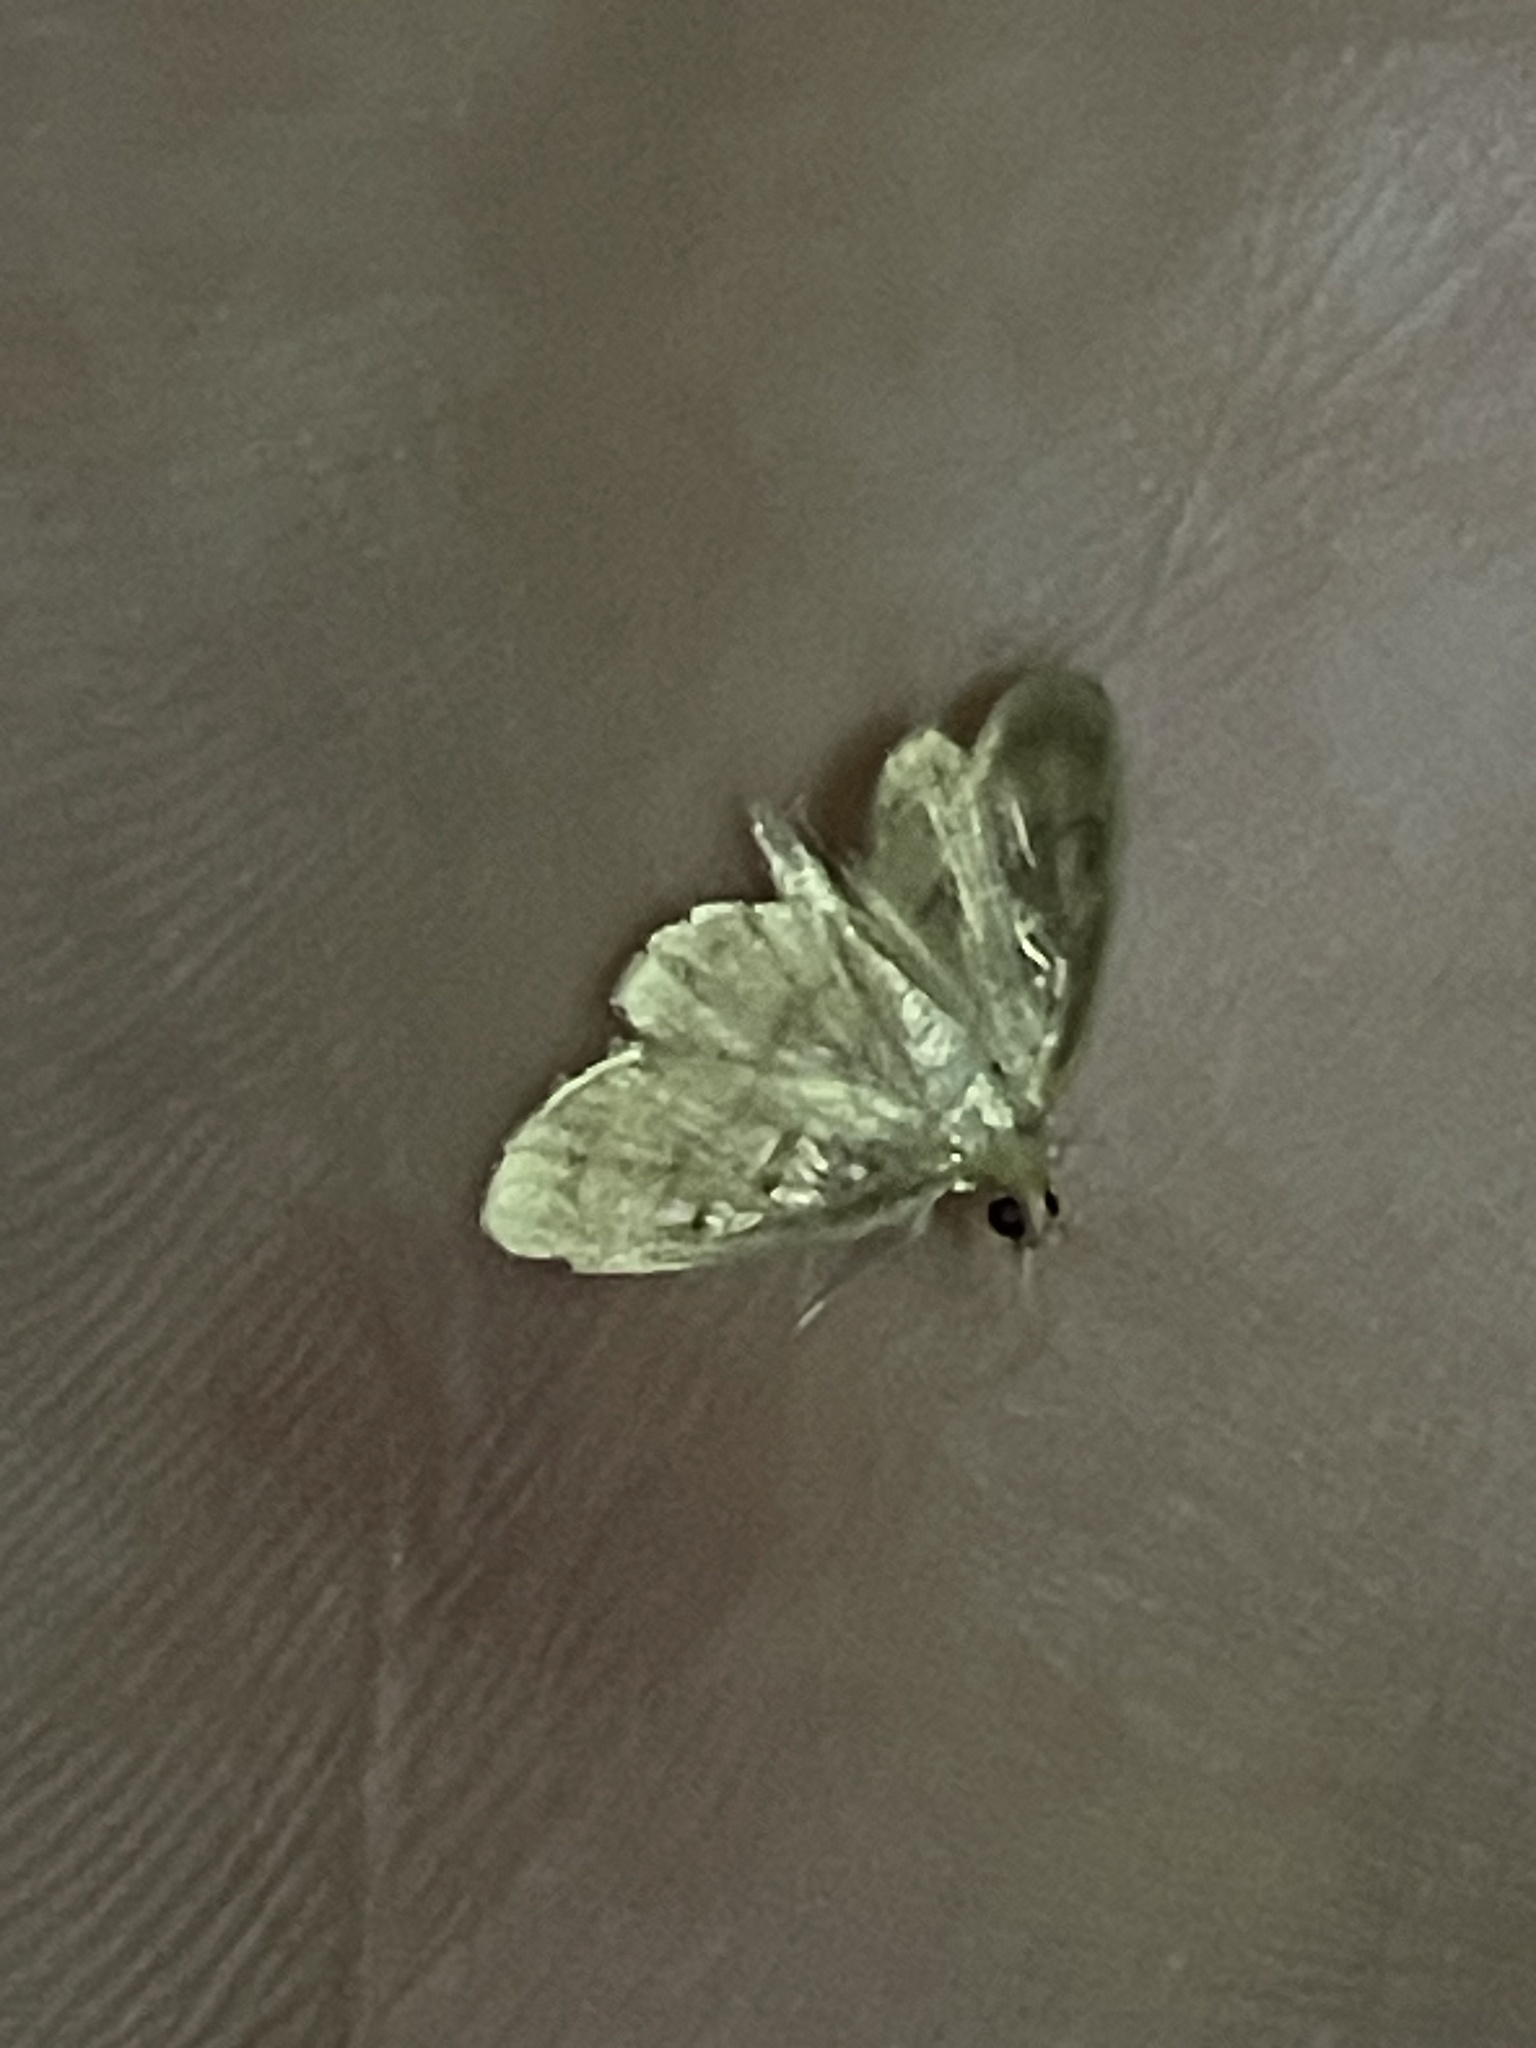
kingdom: Animalia
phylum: Arthropoda
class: Insecta
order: Lepidoptera
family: Crambidae
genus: Crocidophora
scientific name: Crocidophora tuberculalis
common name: Pale-winged crocidiphora moth
